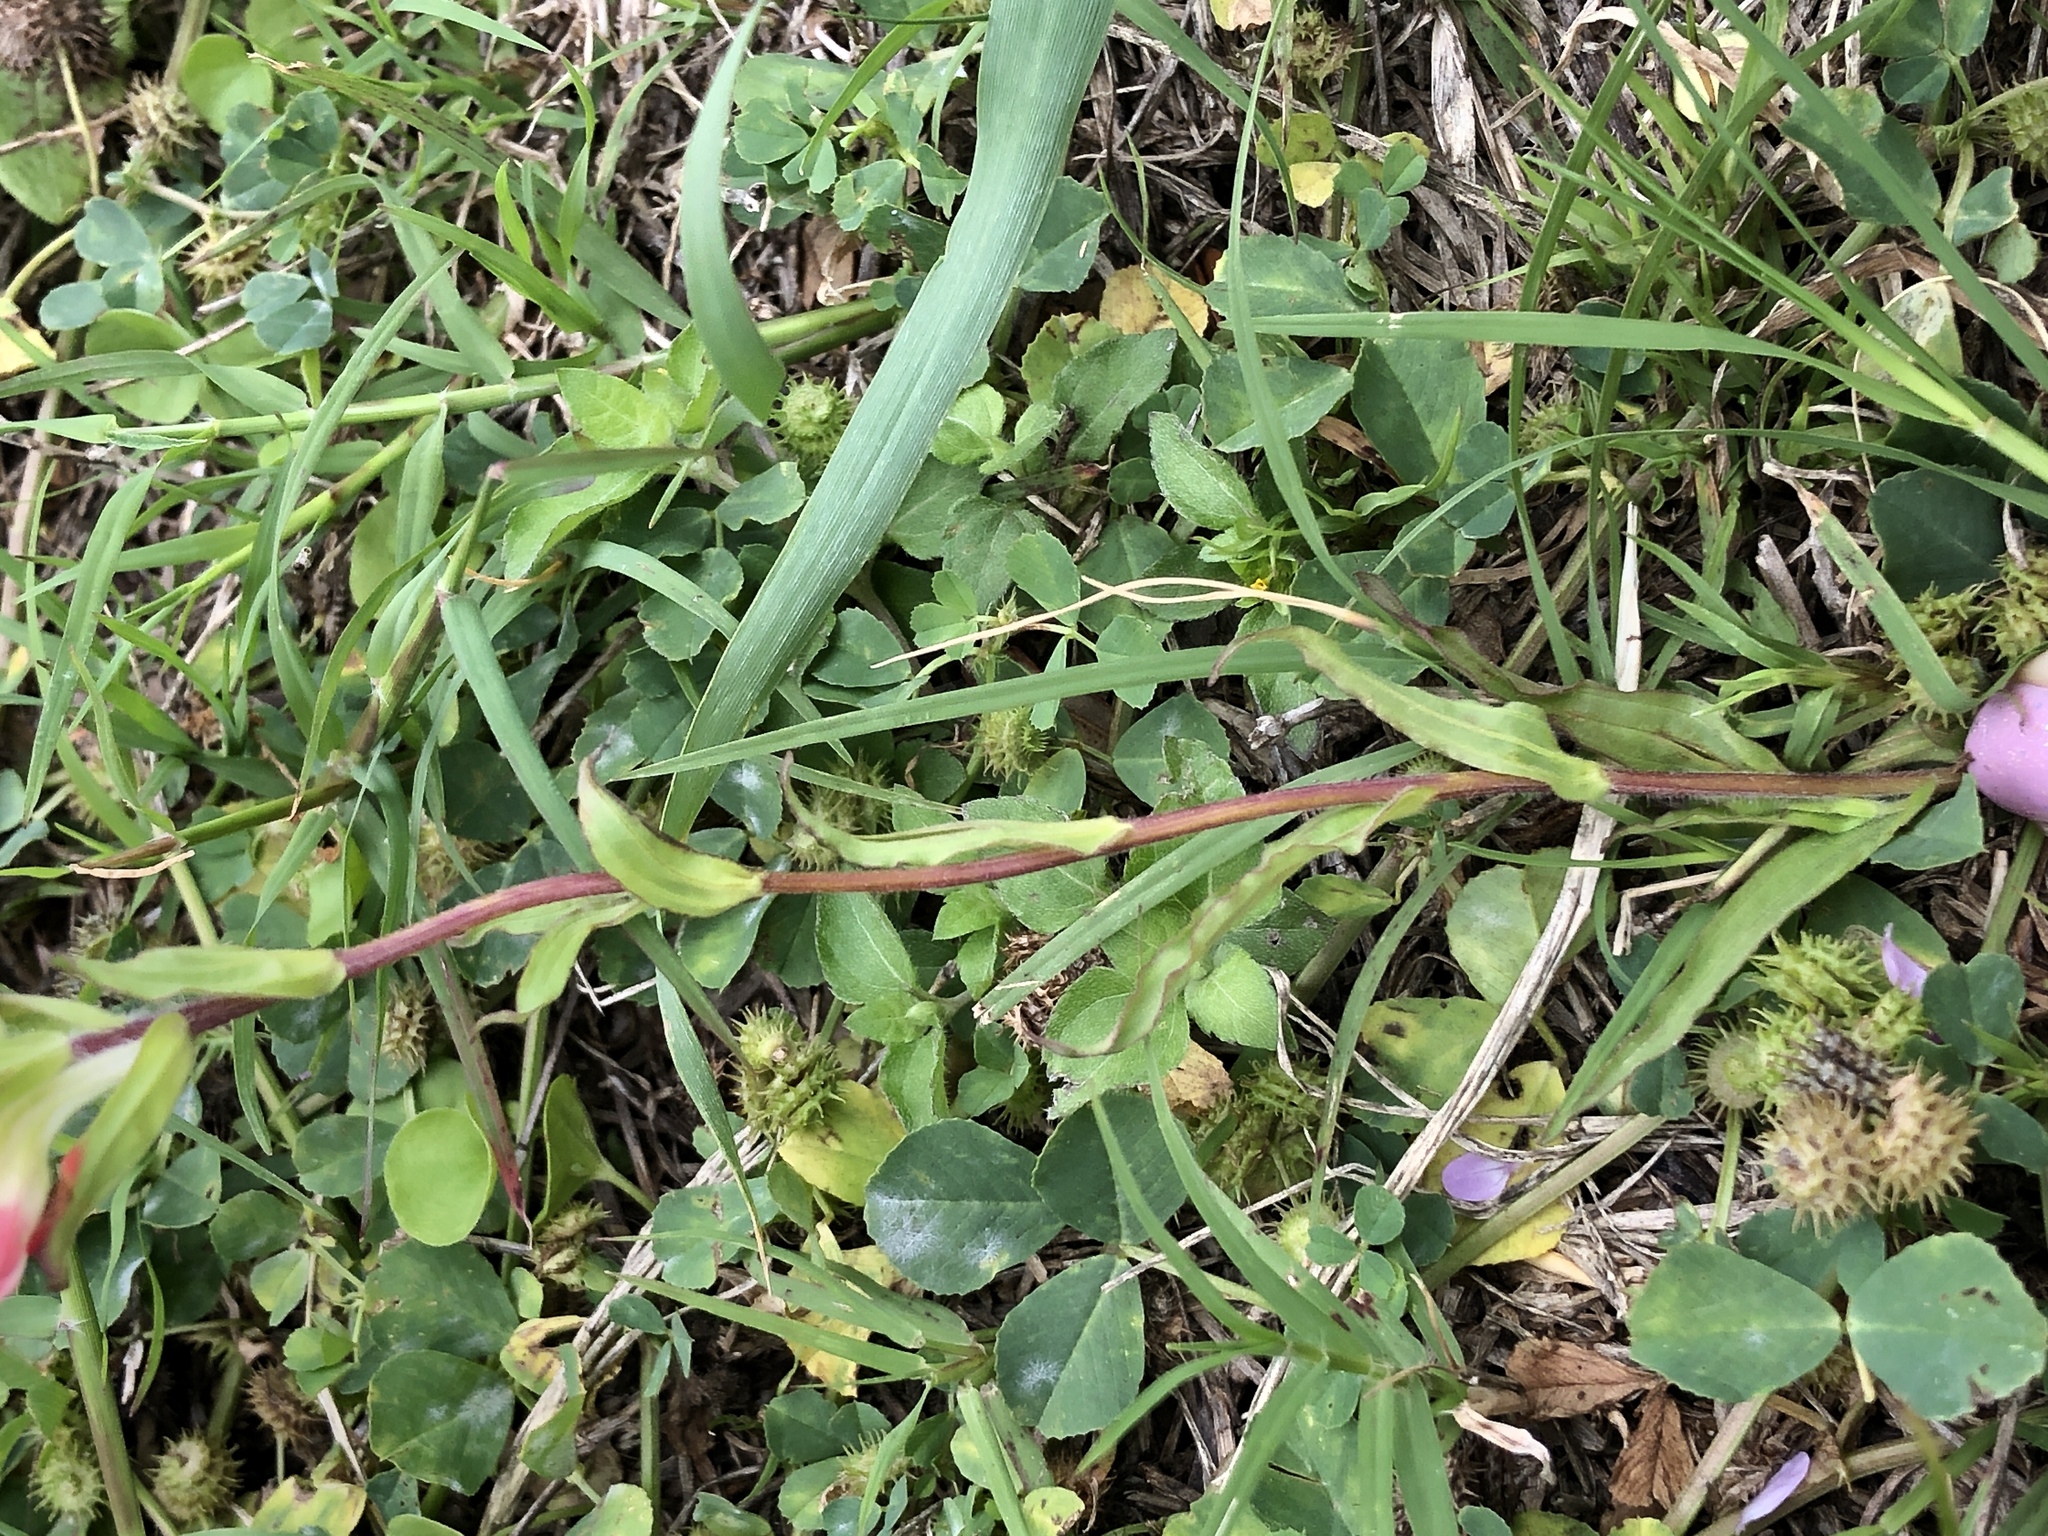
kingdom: Plantae
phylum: Tracheophyta
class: Magnoliopsida
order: Lamiales
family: Orobanchaceae
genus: Castilleja
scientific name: Castilleja indivisa
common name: Texas paintbrush
